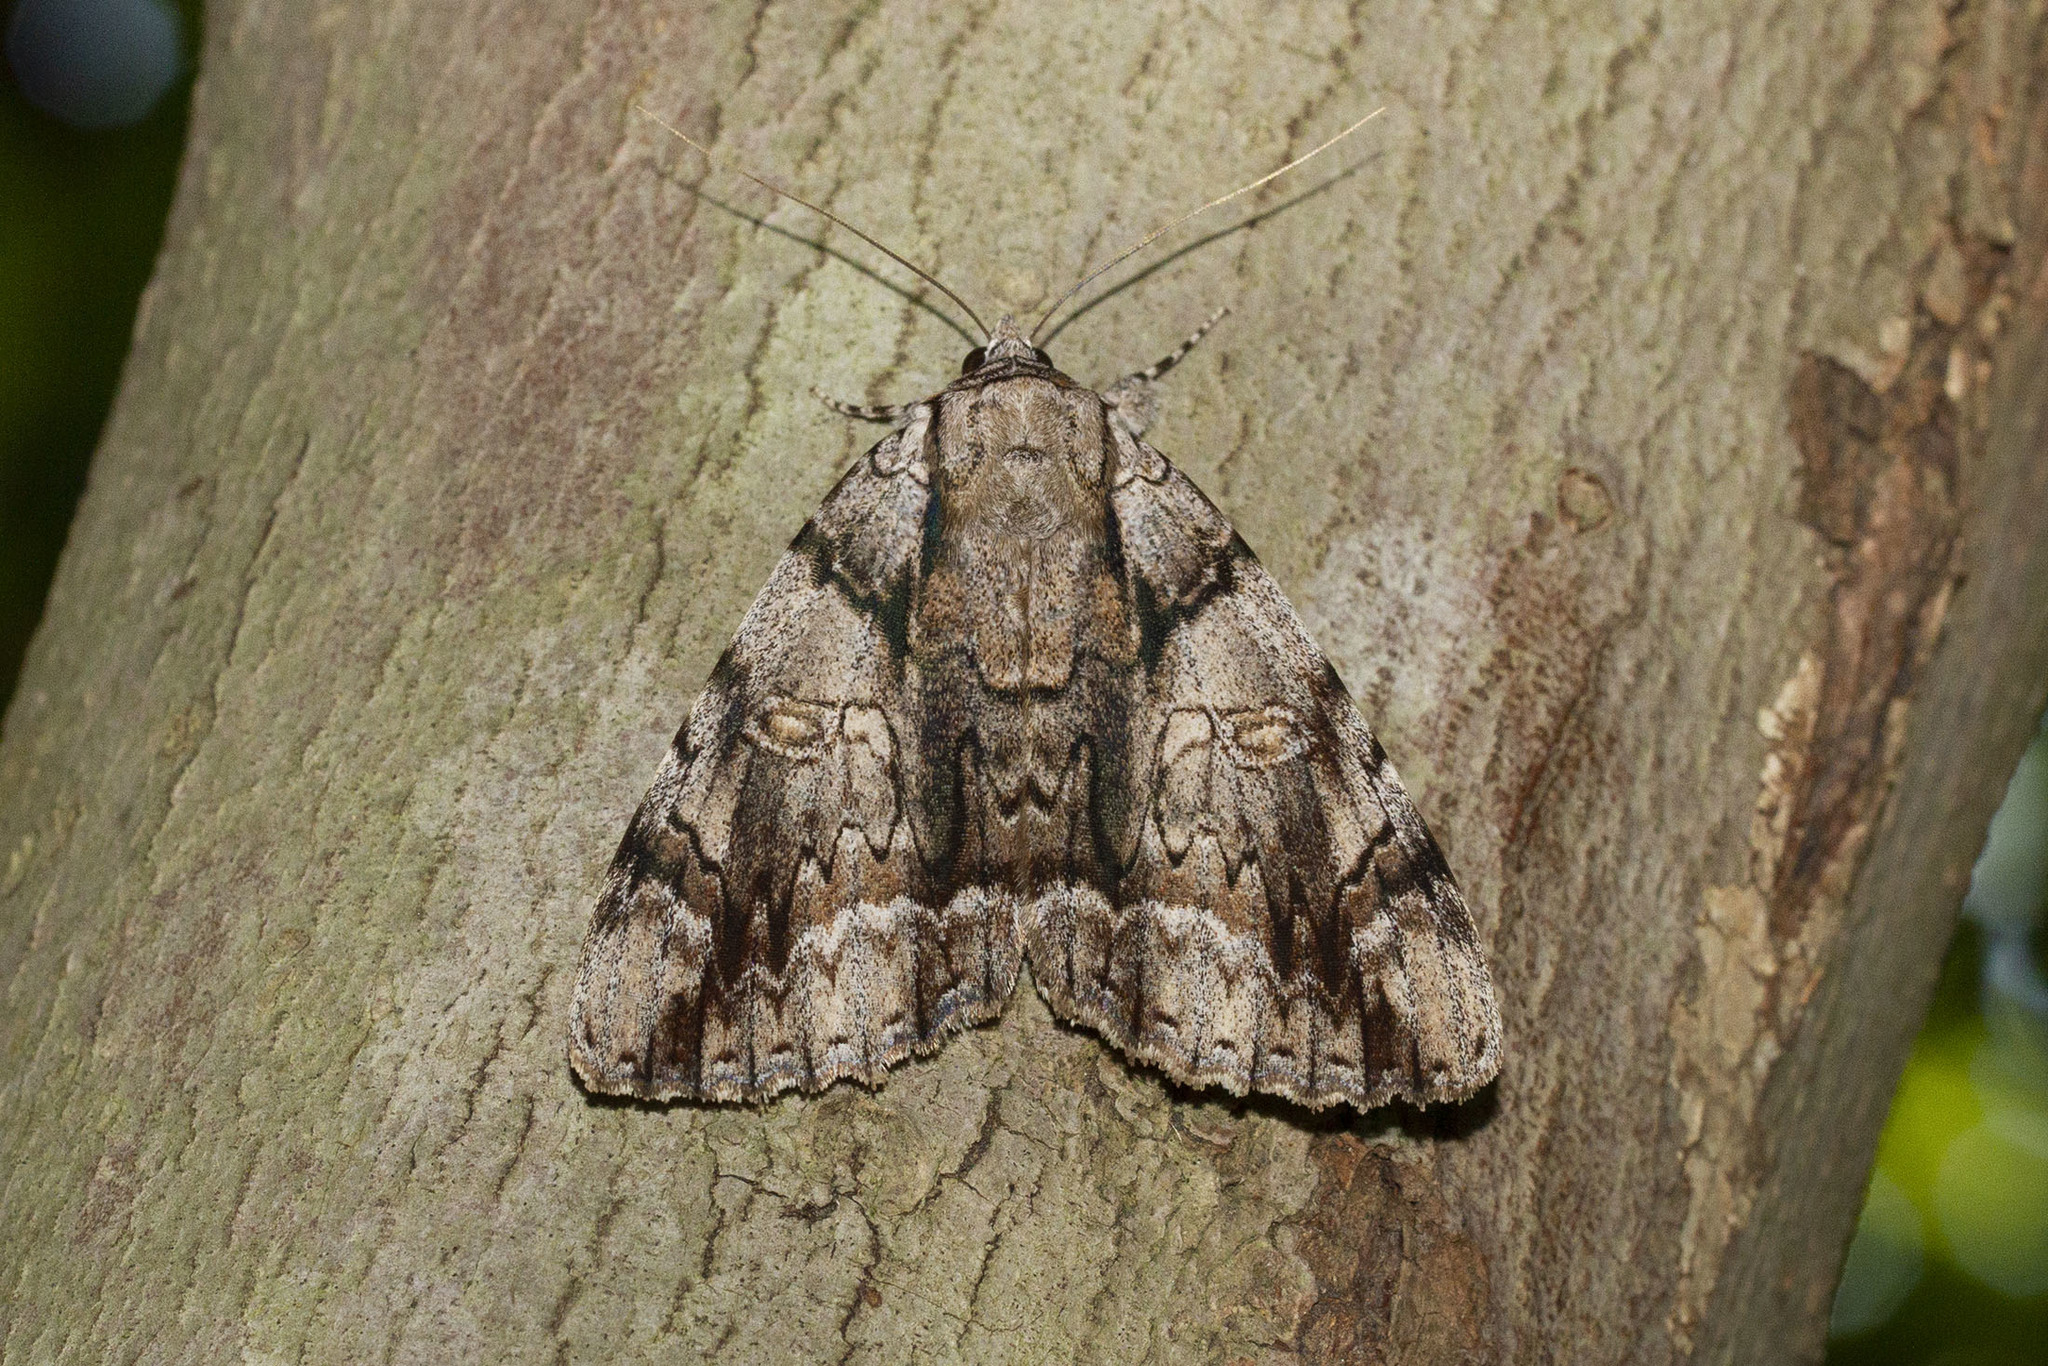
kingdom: Animalia
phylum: Arthropoda
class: Insecta
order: Lepidoptera
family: Erebidae
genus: Catocala
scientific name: Catocala vidua
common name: The widow
